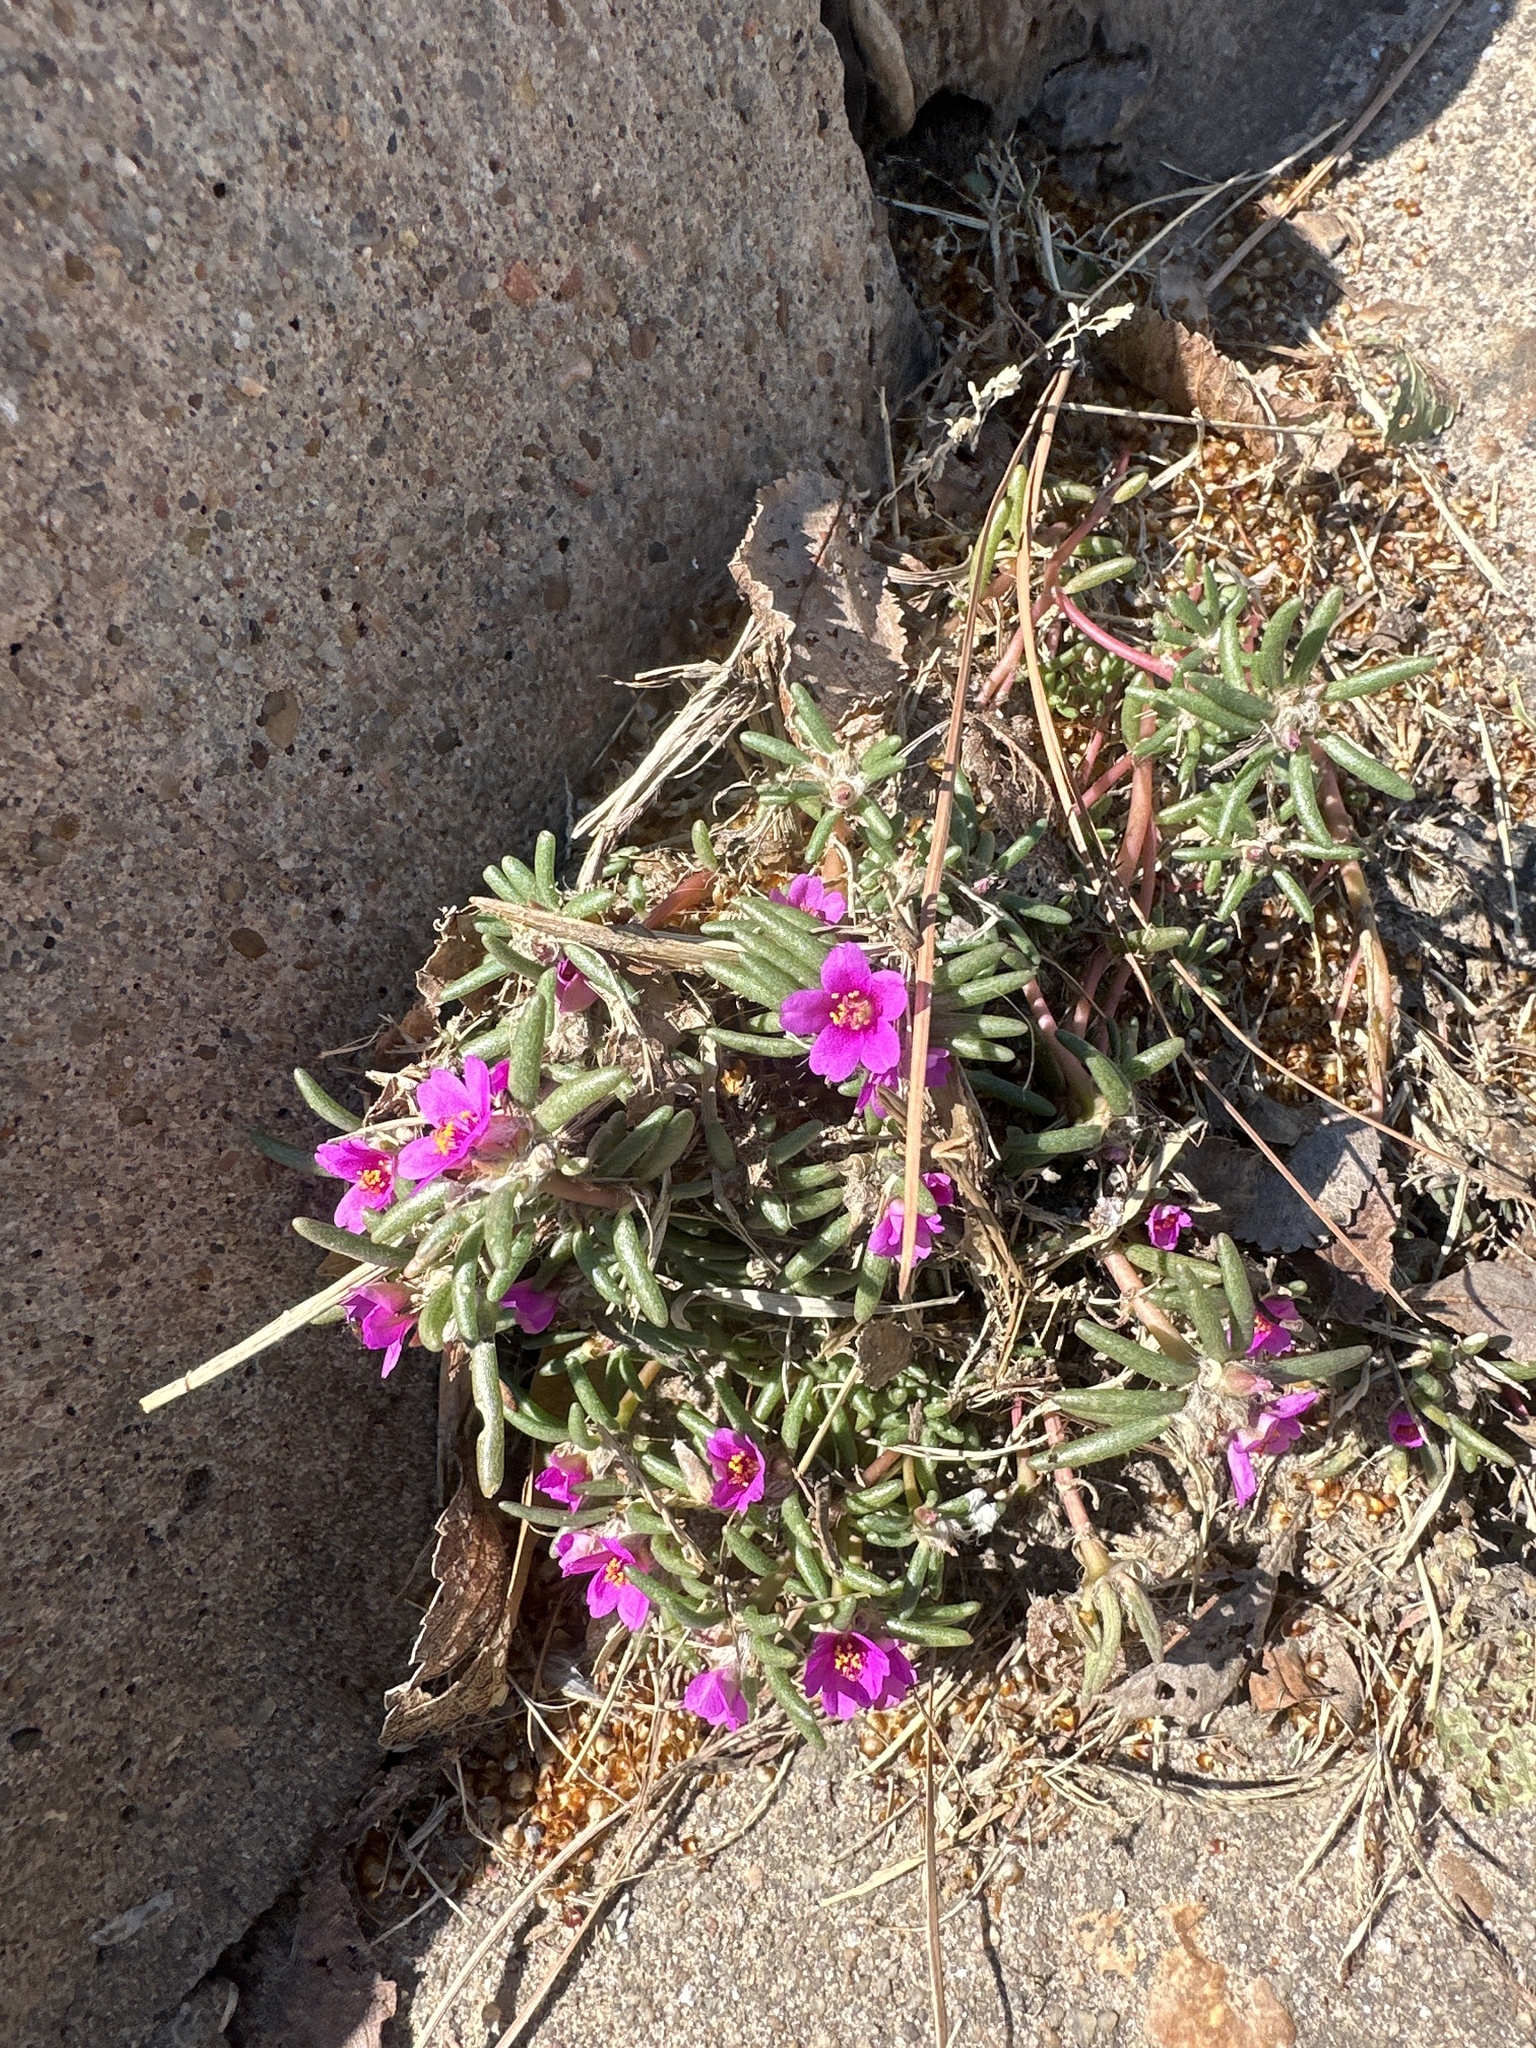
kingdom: Plantae
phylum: Tracheophyta
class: Magnoliopsida
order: Caryophyllales
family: Portulacaceae
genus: Portulaca
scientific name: Portulaca pilosa
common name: Kiss me quick
